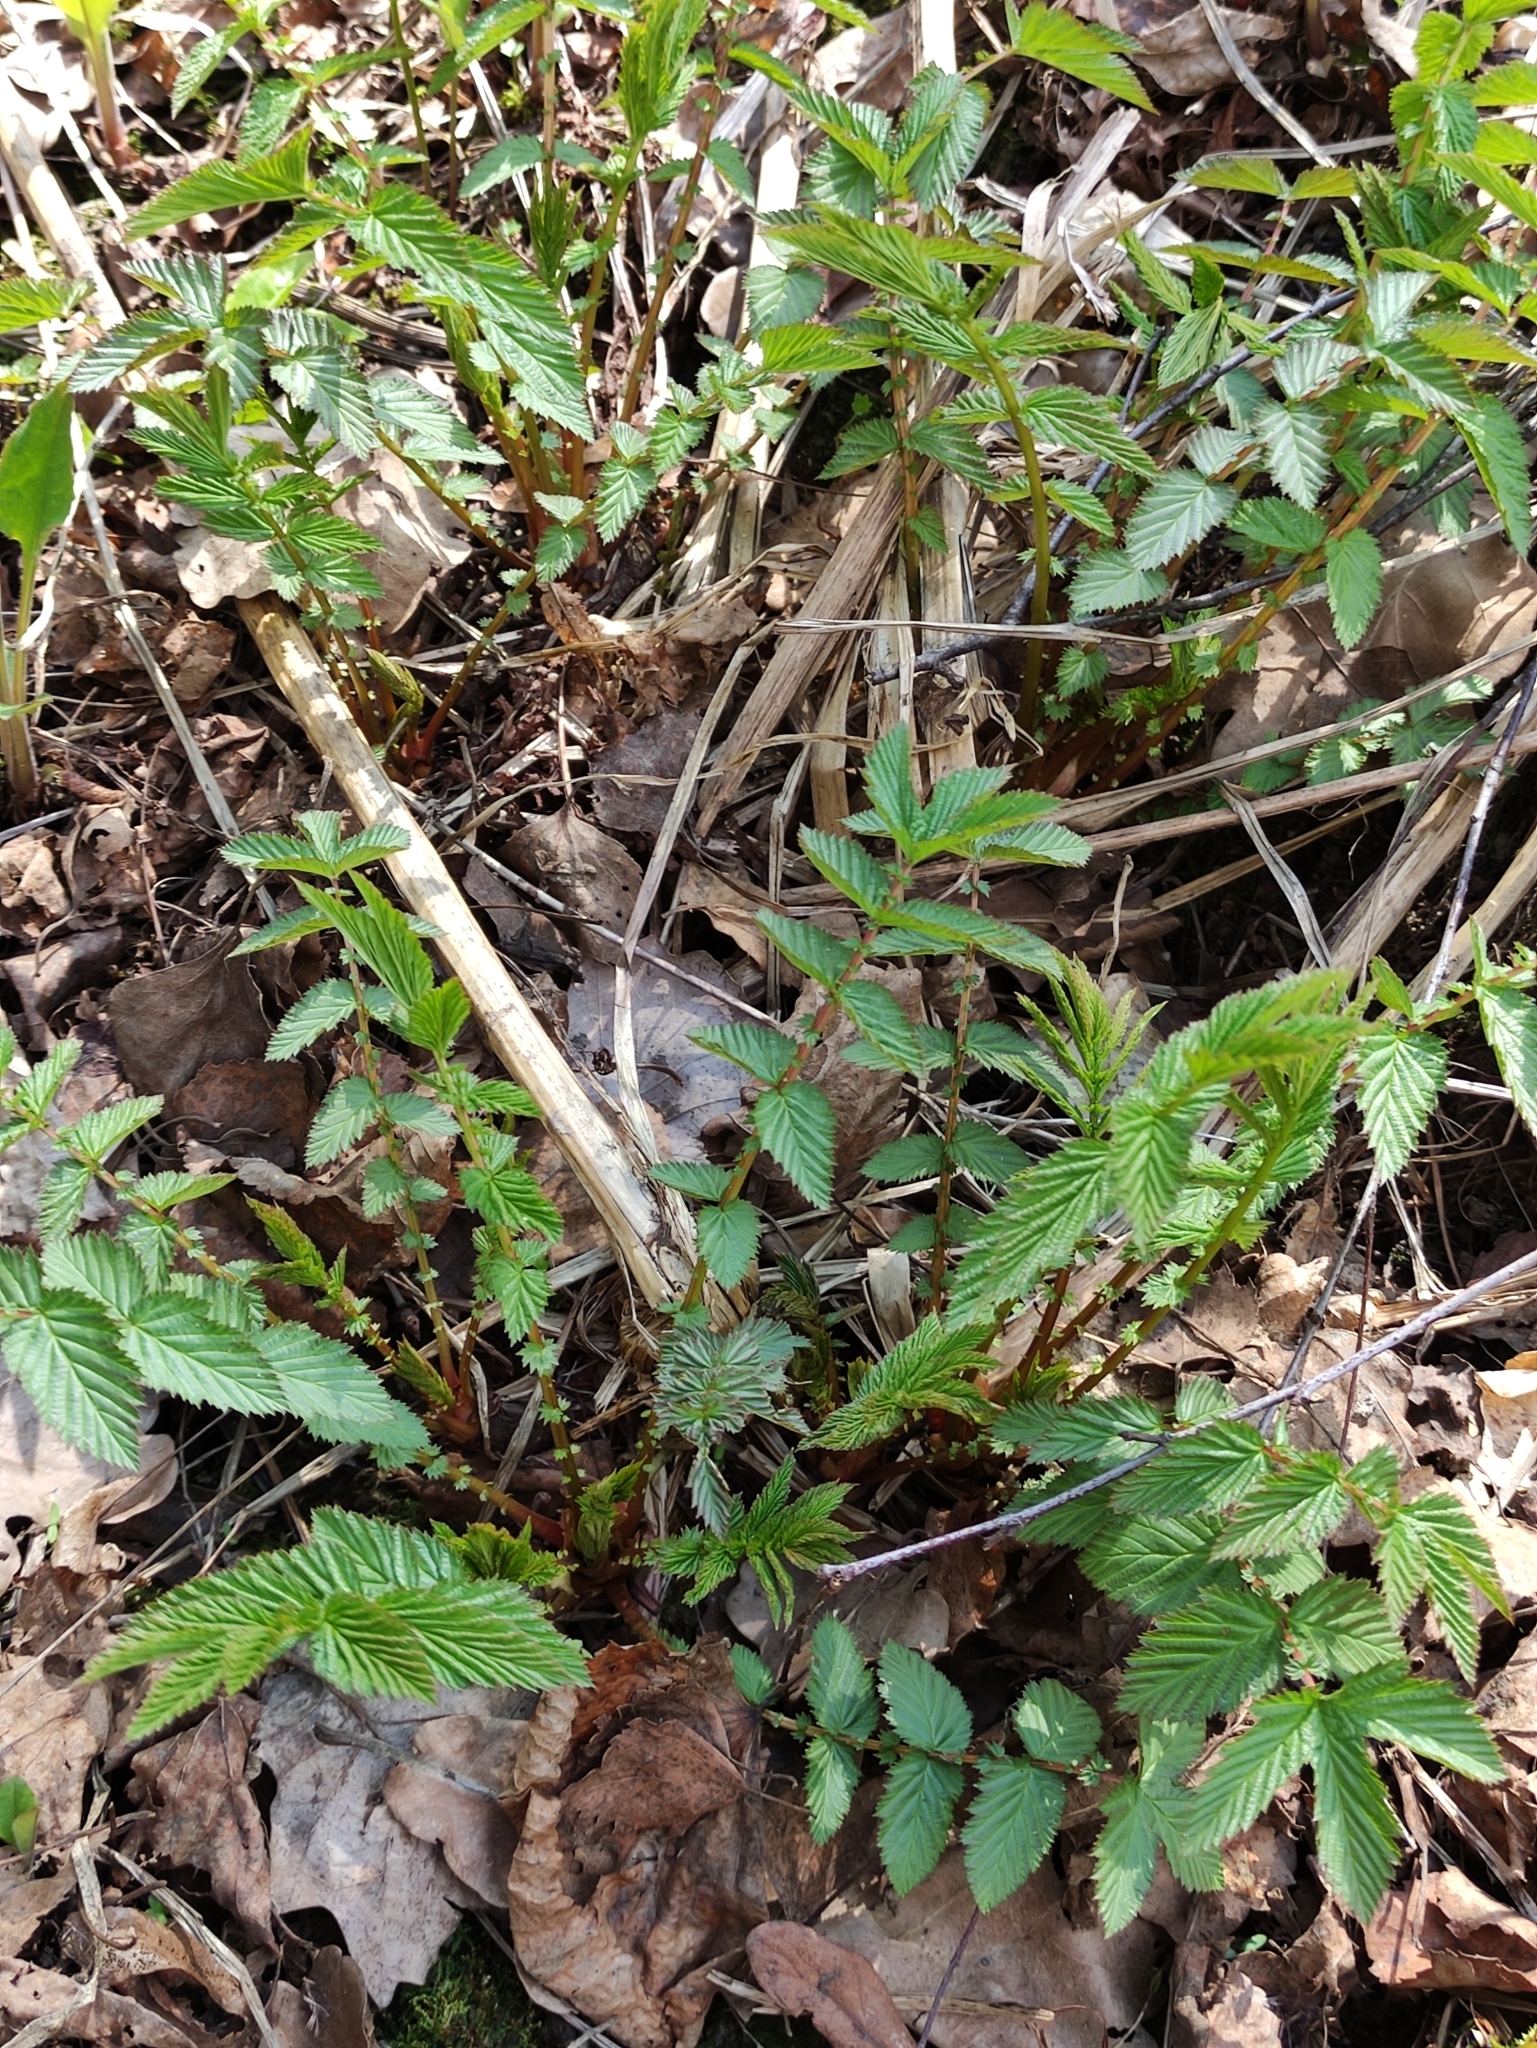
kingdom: Plantae
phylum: Tracheophyta
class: Magnoliopsida
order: Rosales
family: Rosaceae
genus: Filipendula
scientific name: Filipendula ulmaria
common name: Meadowsweet
